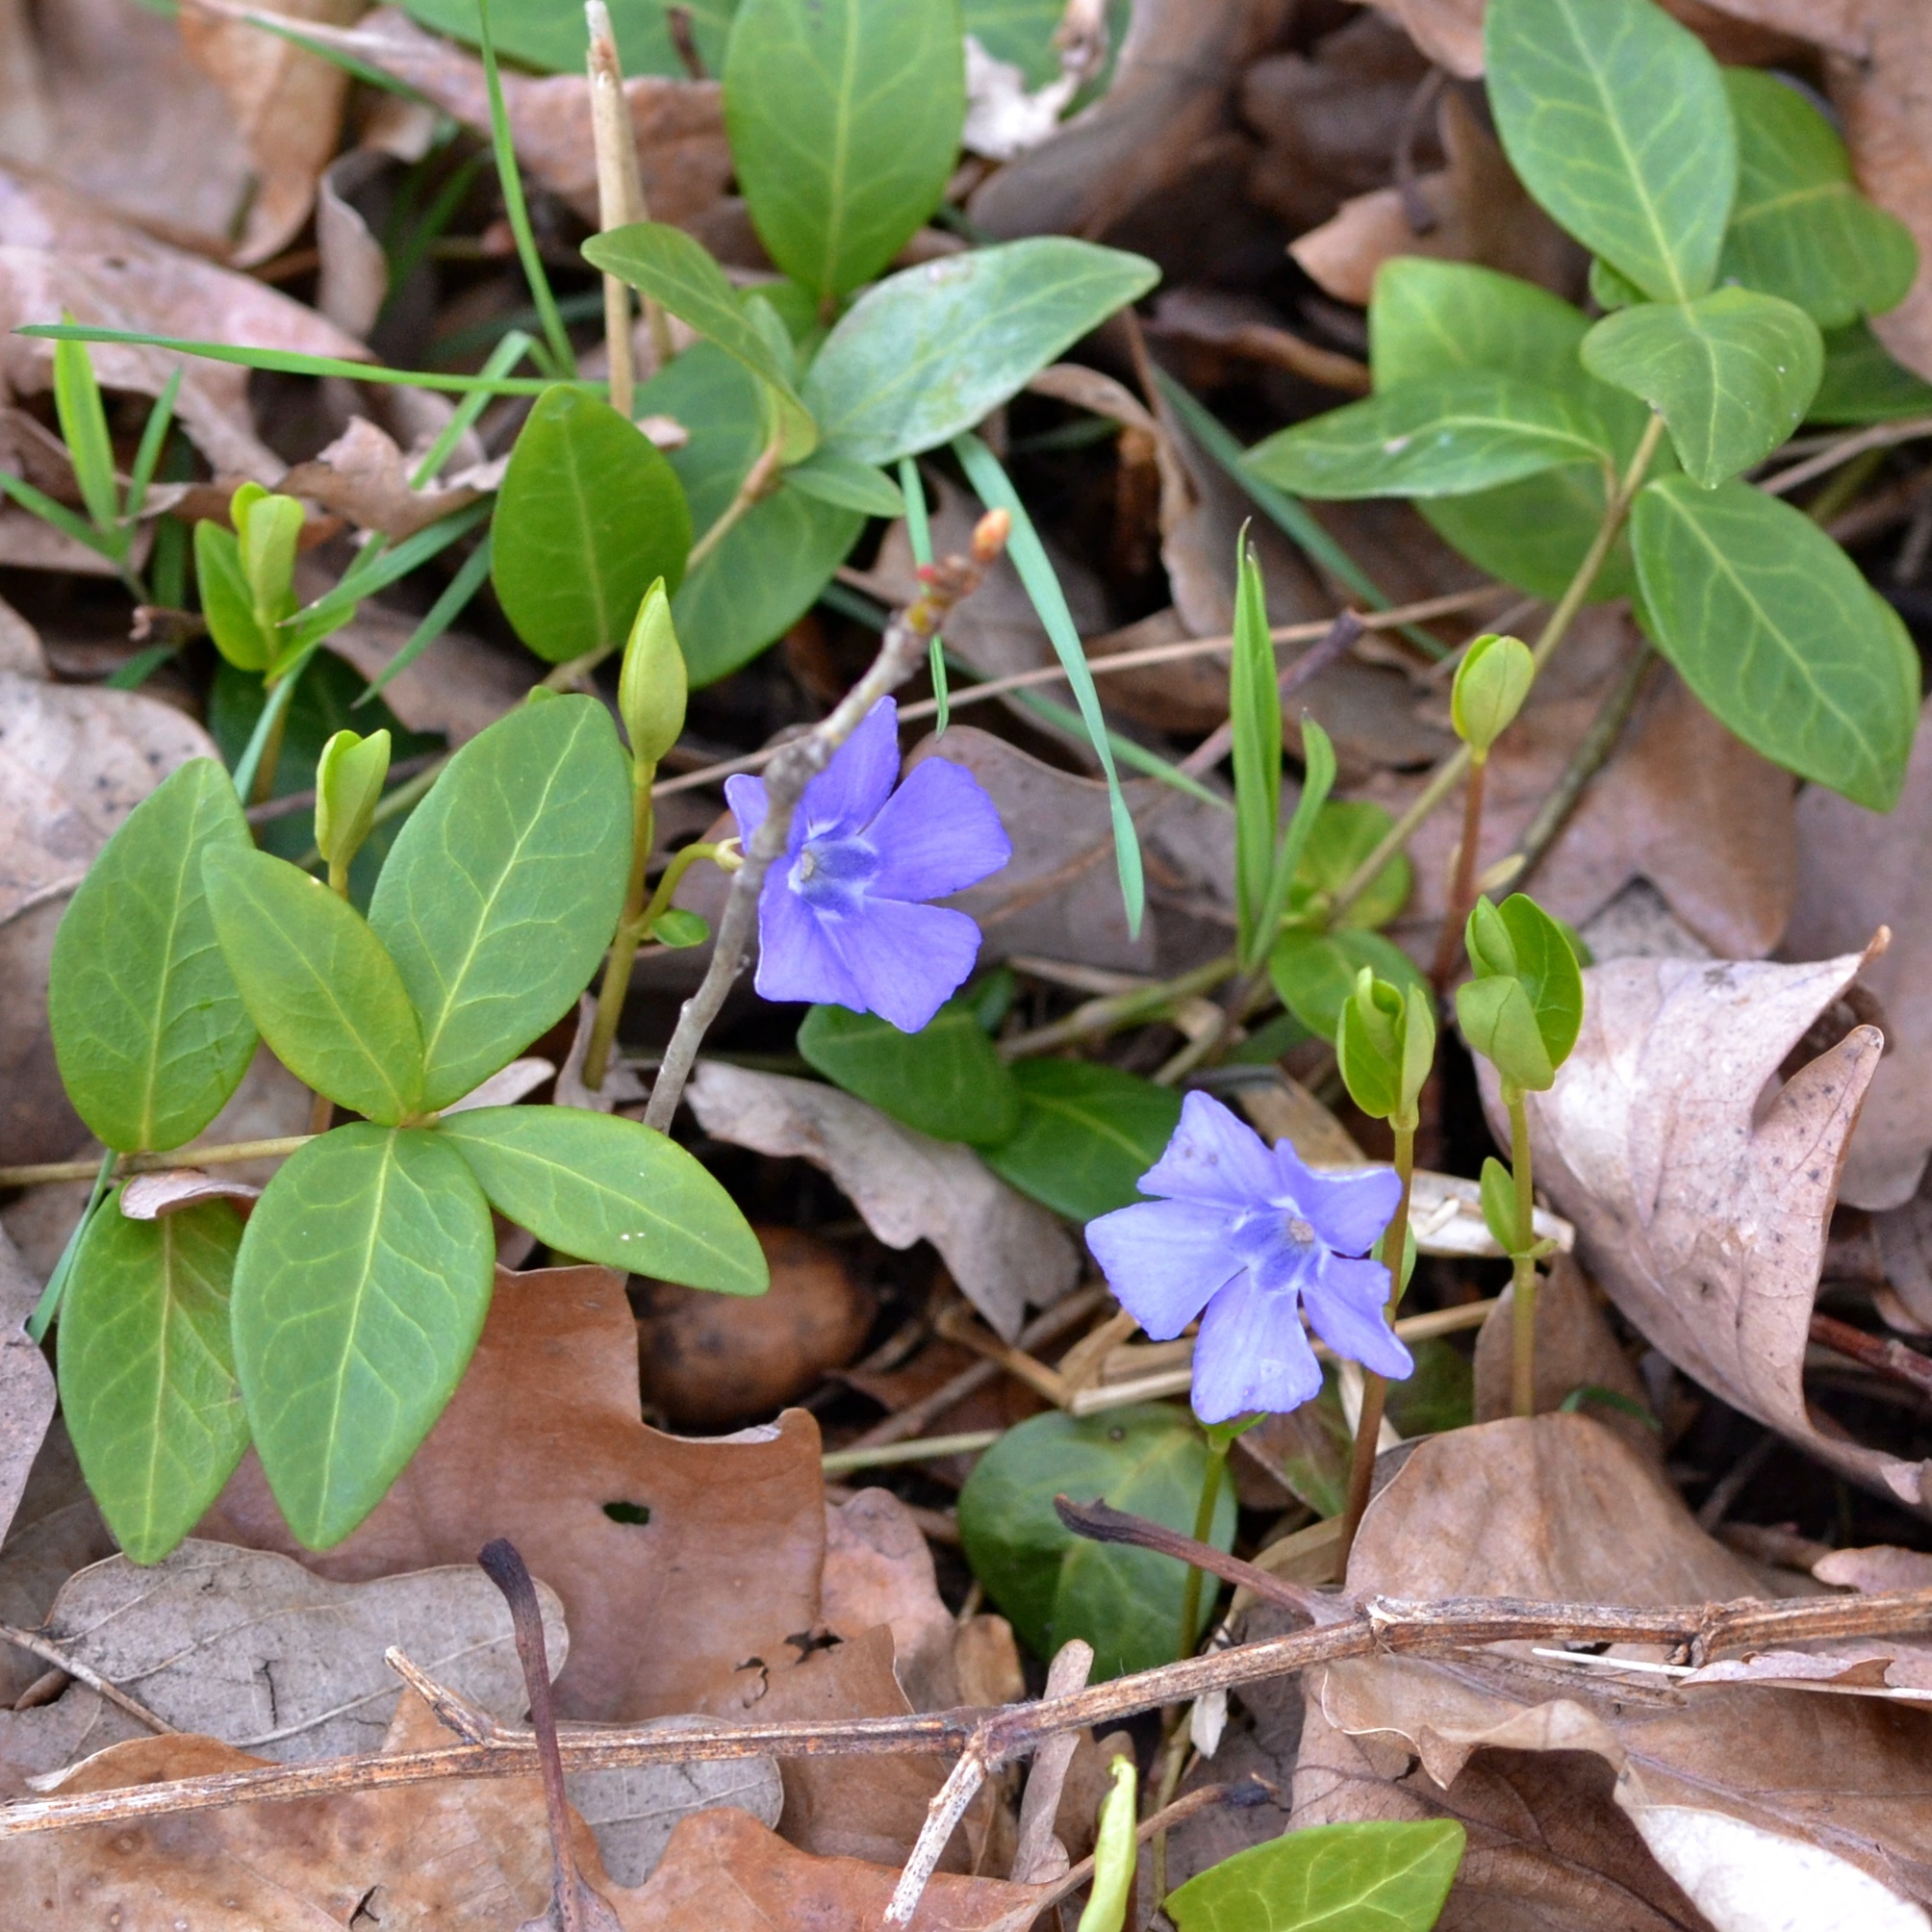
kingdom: Plantae
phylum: Tracheophyta
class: Magnoliopsida
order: Gentianales
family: Apocynaceae
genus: Vinca
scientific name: Vinca minor
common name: Lesser periwinkle
